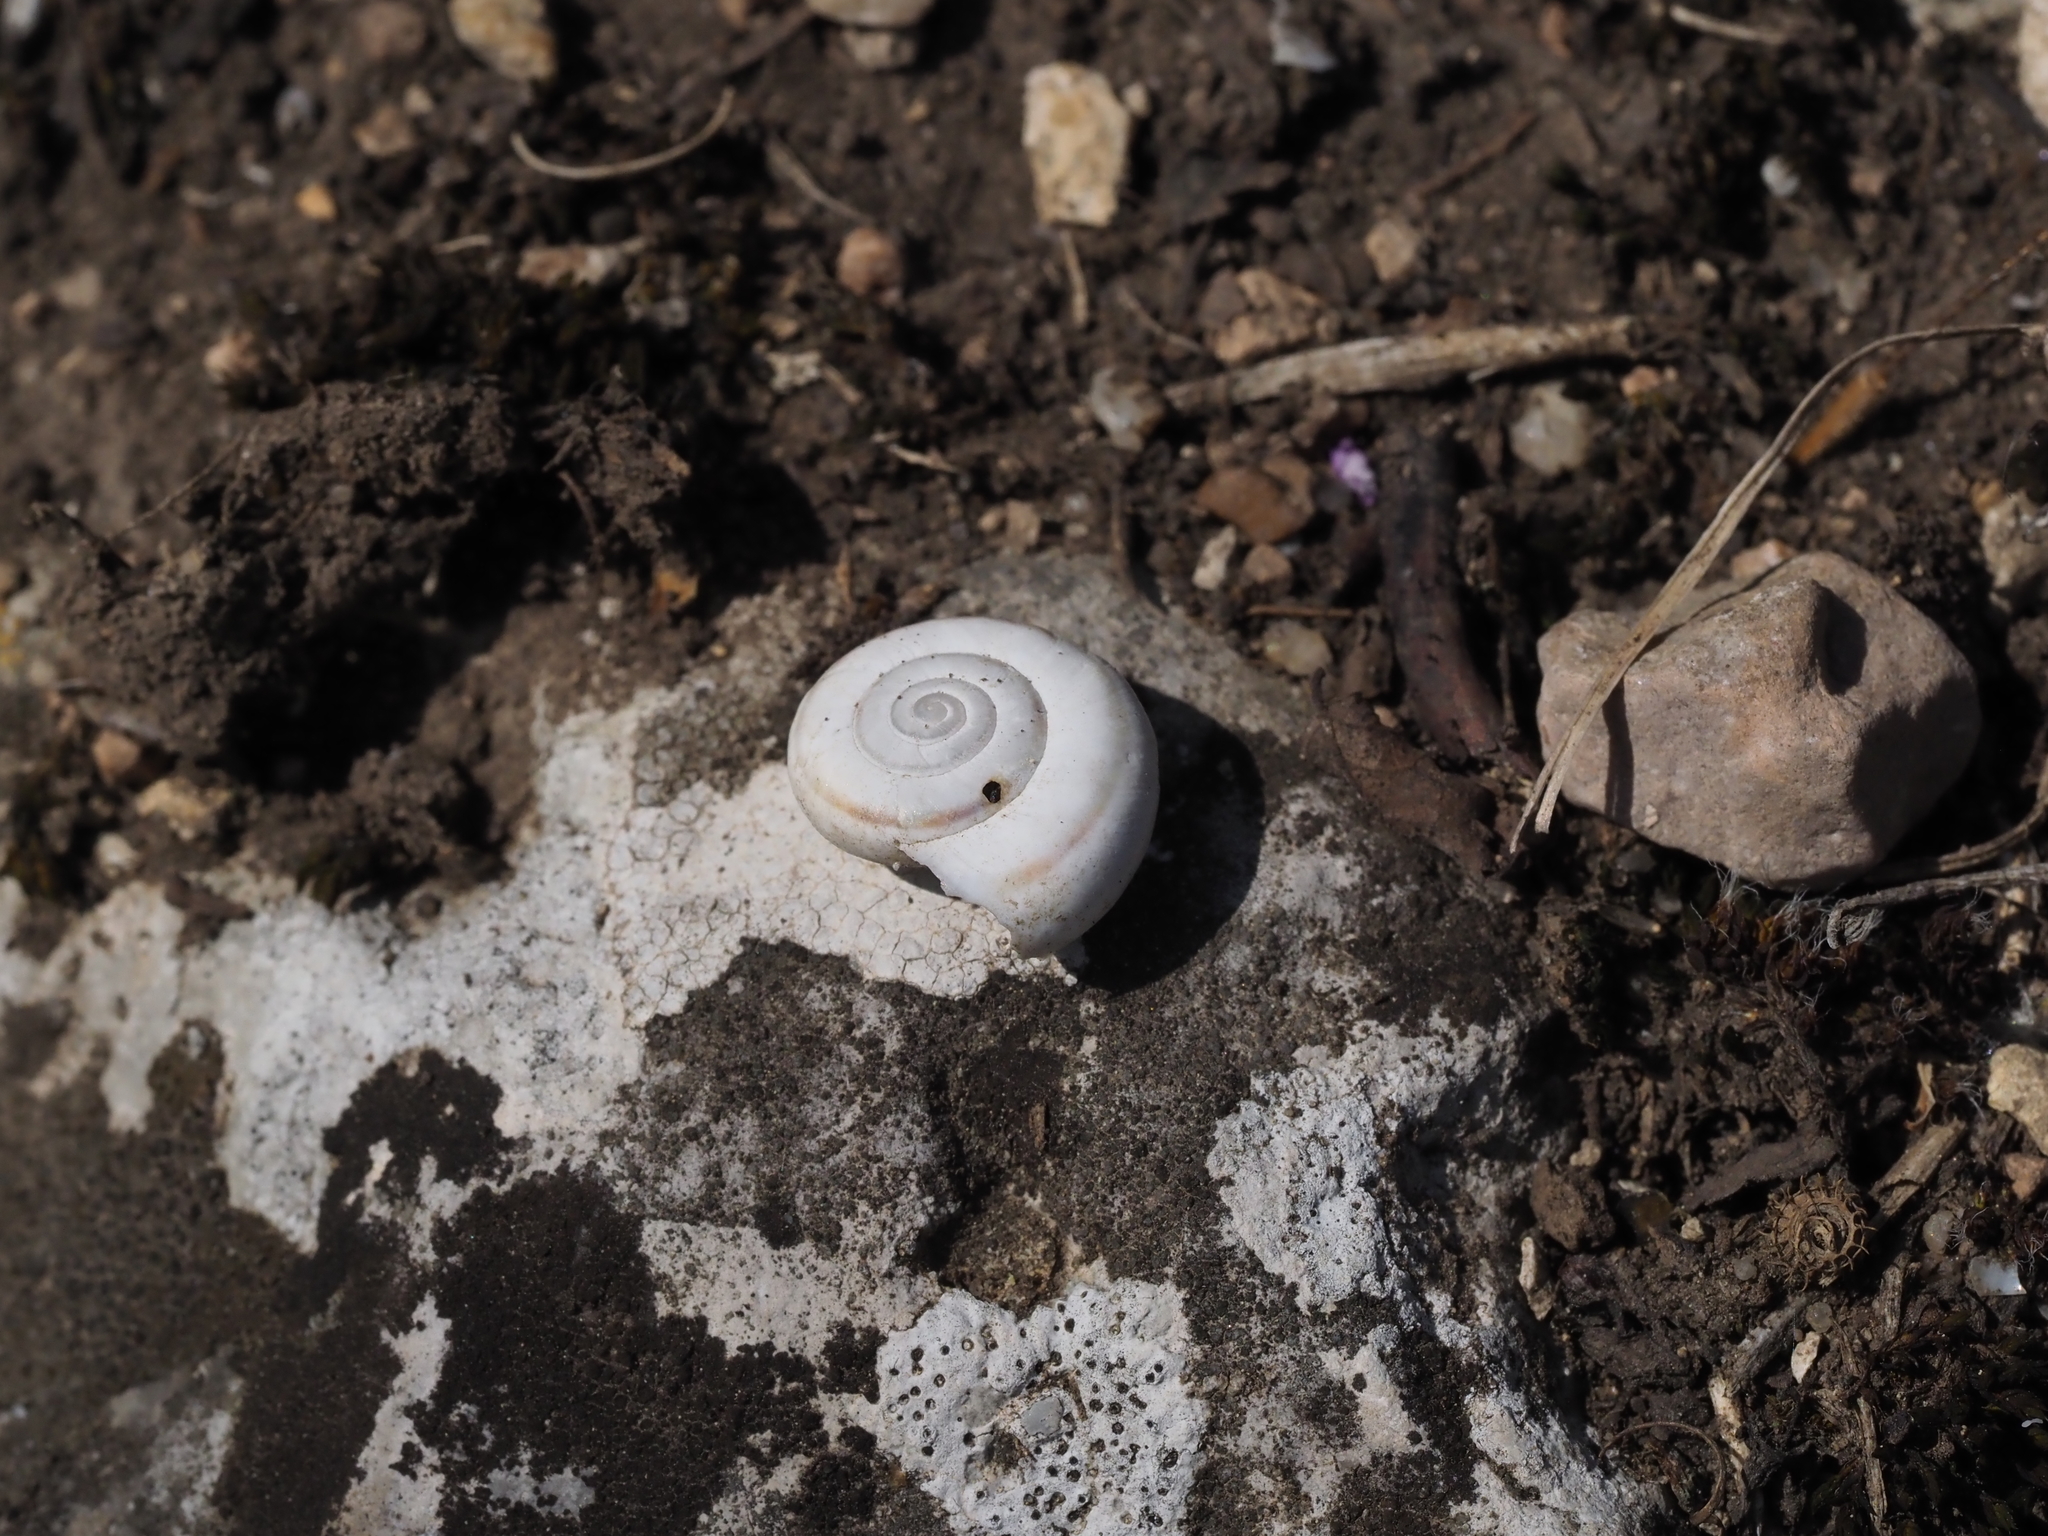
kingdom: Animalia
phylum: Mollusca
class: Gastropoda
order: Stylommatophora
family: Geomitridae
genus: Xerolenta
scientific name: Xerolenta obvia
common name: White heath snail
